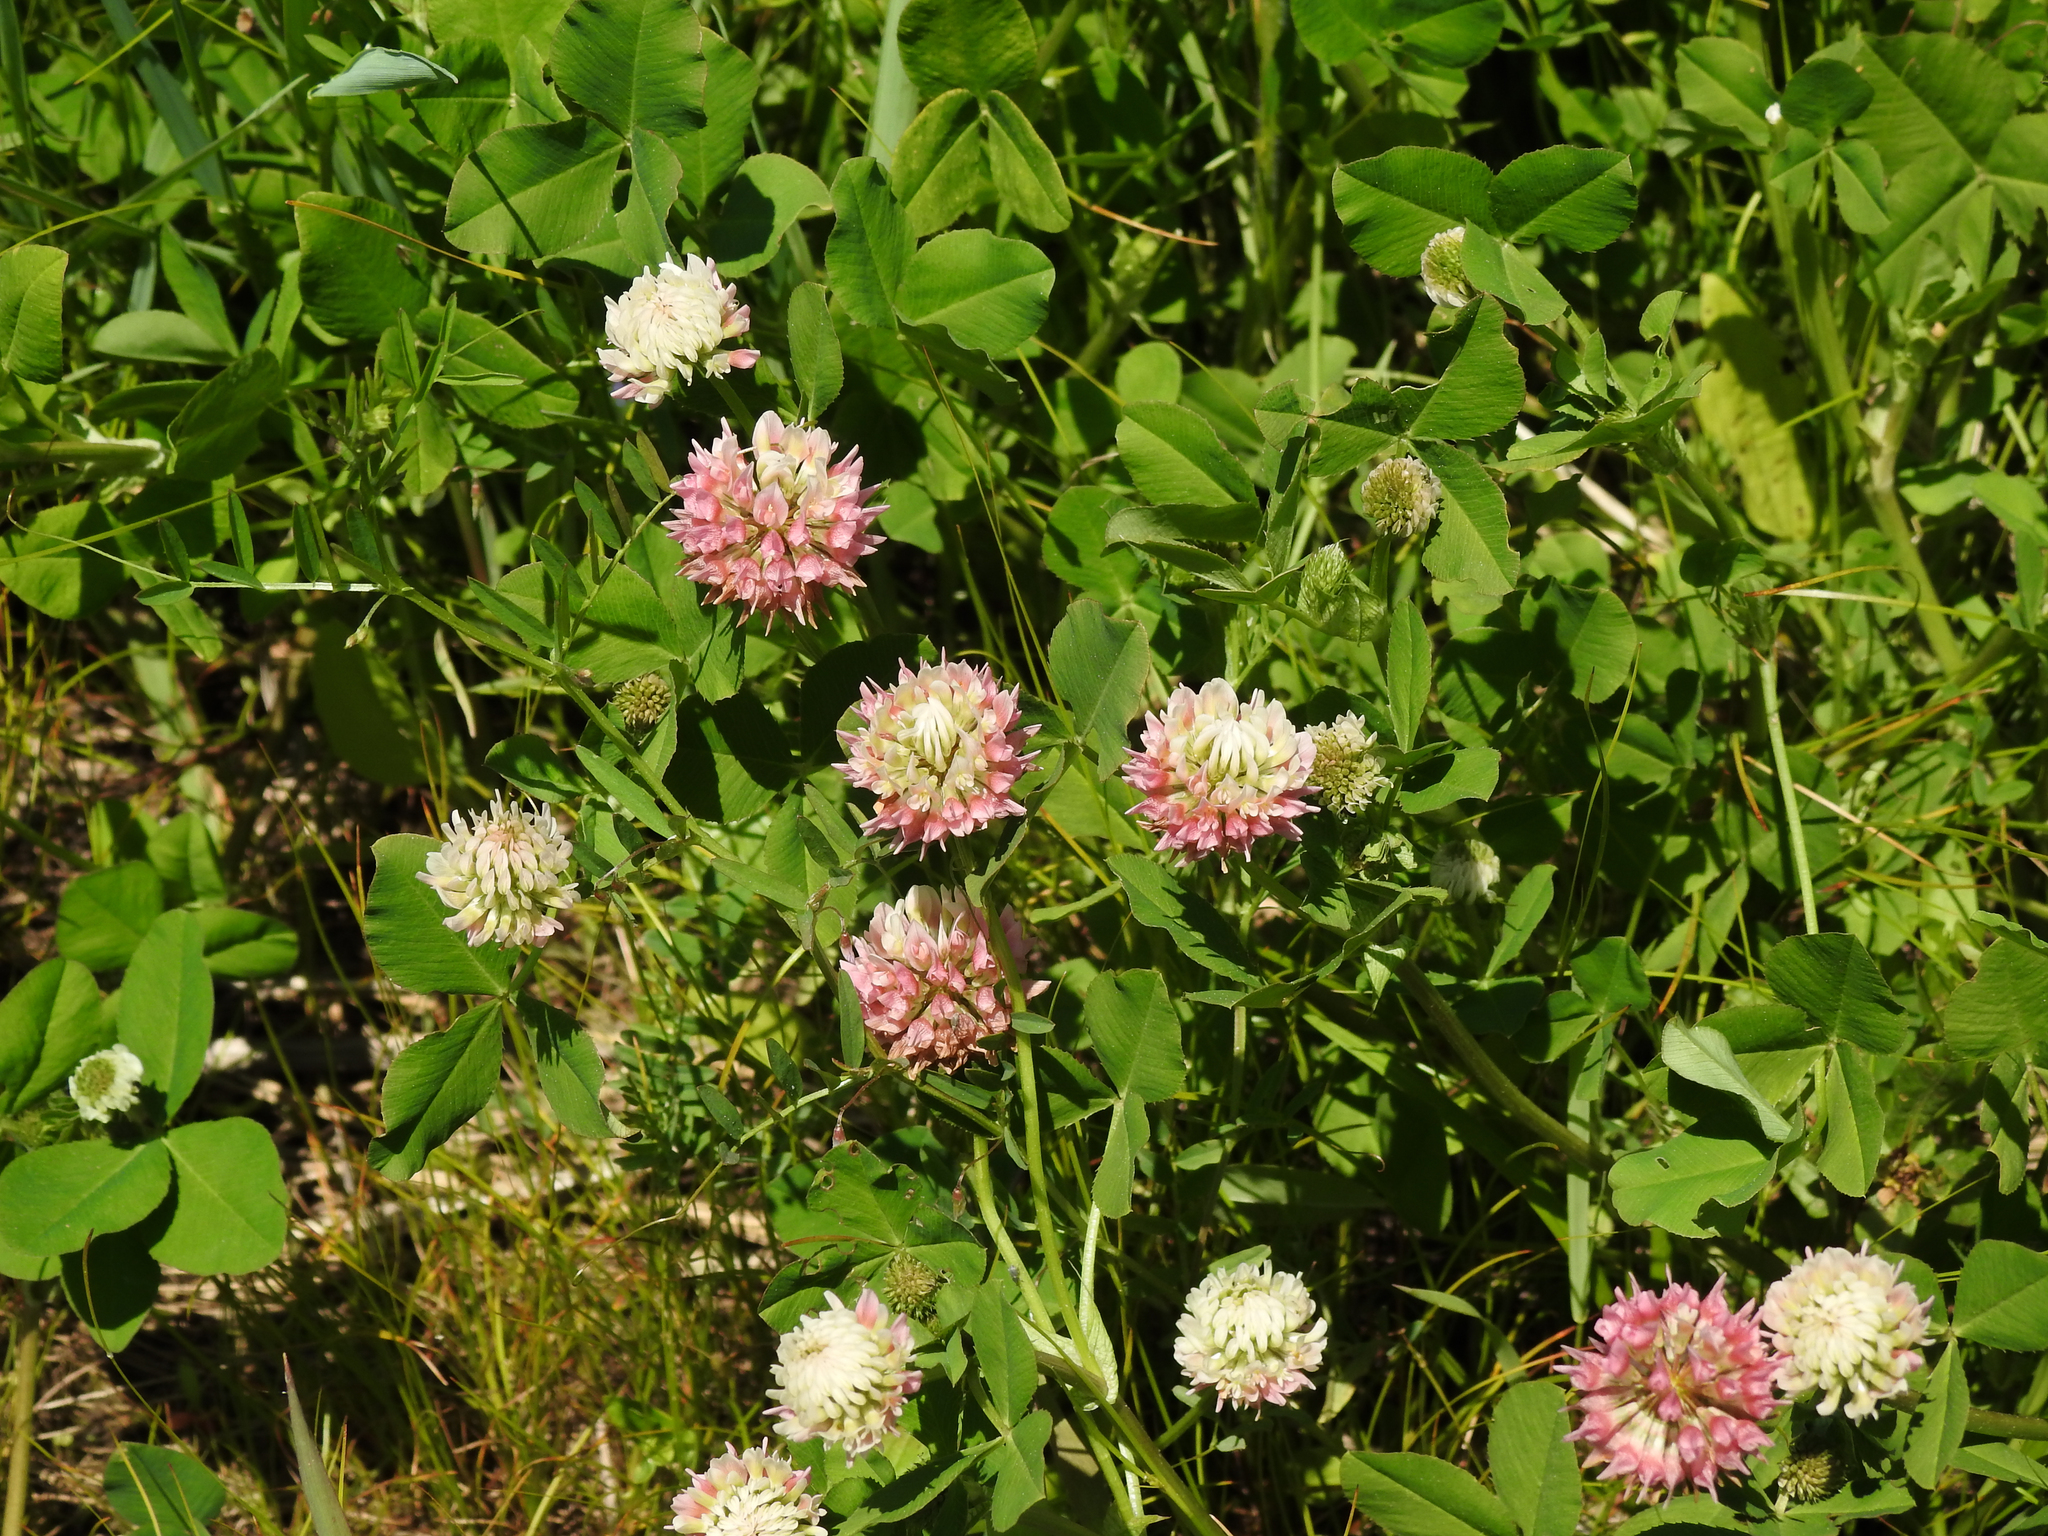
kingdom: Plantae
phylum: Tracheophyta
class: Magnoliopsida
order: Fabales
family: Fabaceae
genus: Trifolium
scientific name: Trifolium hybridum
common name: Alsike clover
